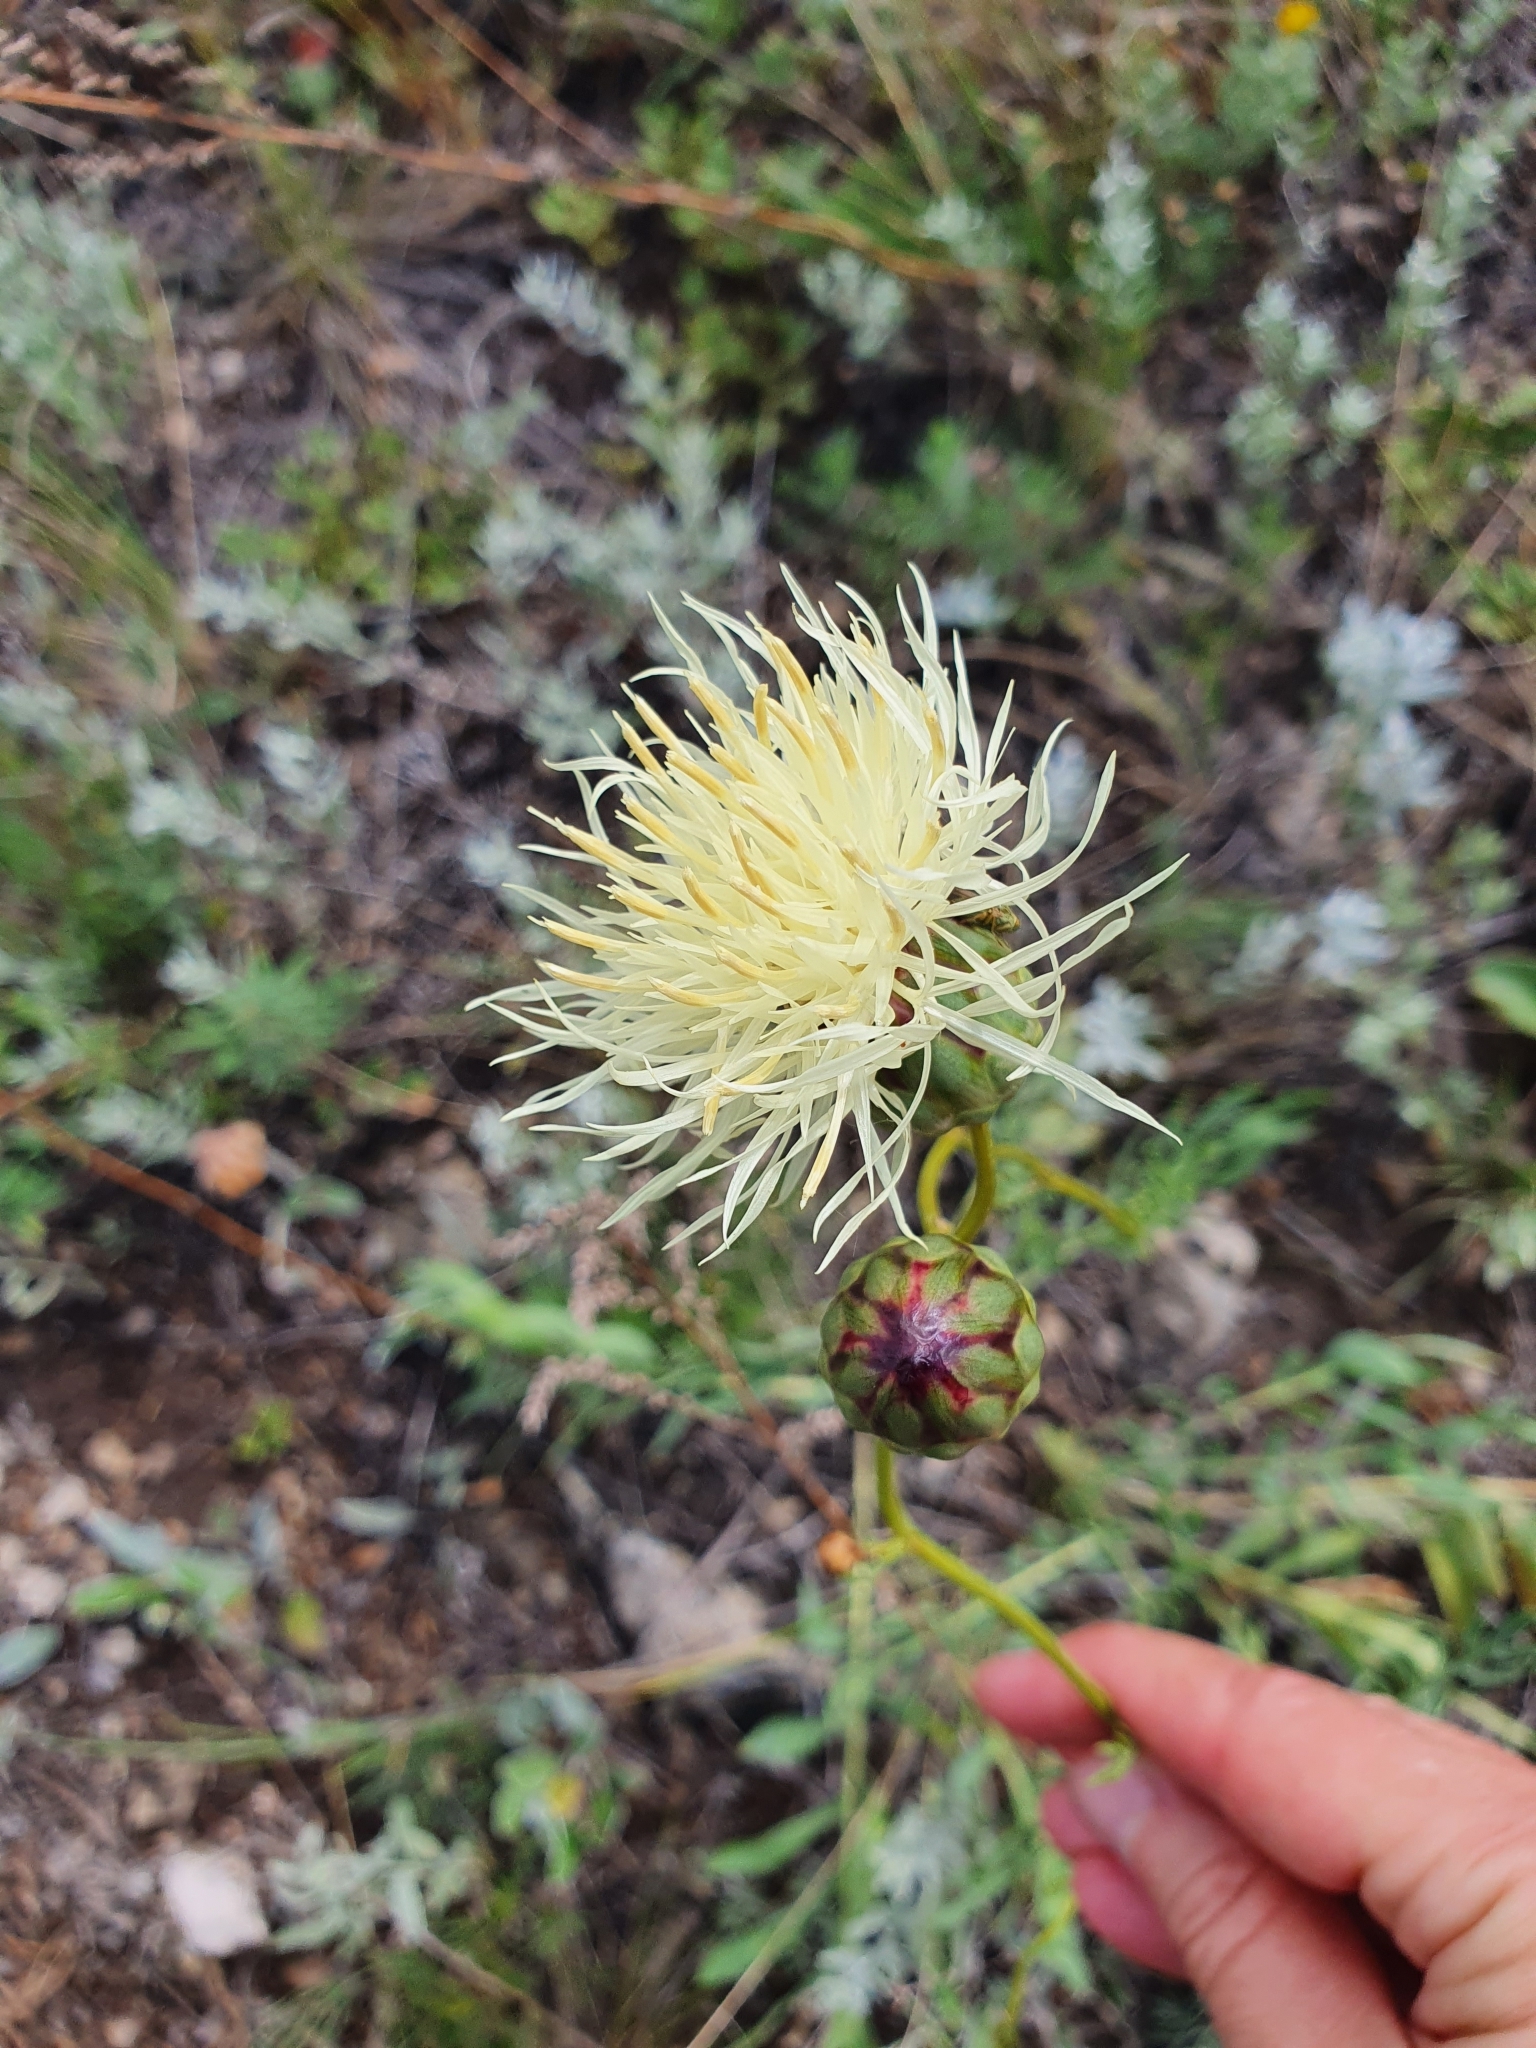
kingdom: Plantae
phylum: Tracheophyta
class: Magnoliopsida
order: Asterales
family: Asteraceae
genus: Rhaponticoides
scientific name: Rhaponticoides ruthenica
